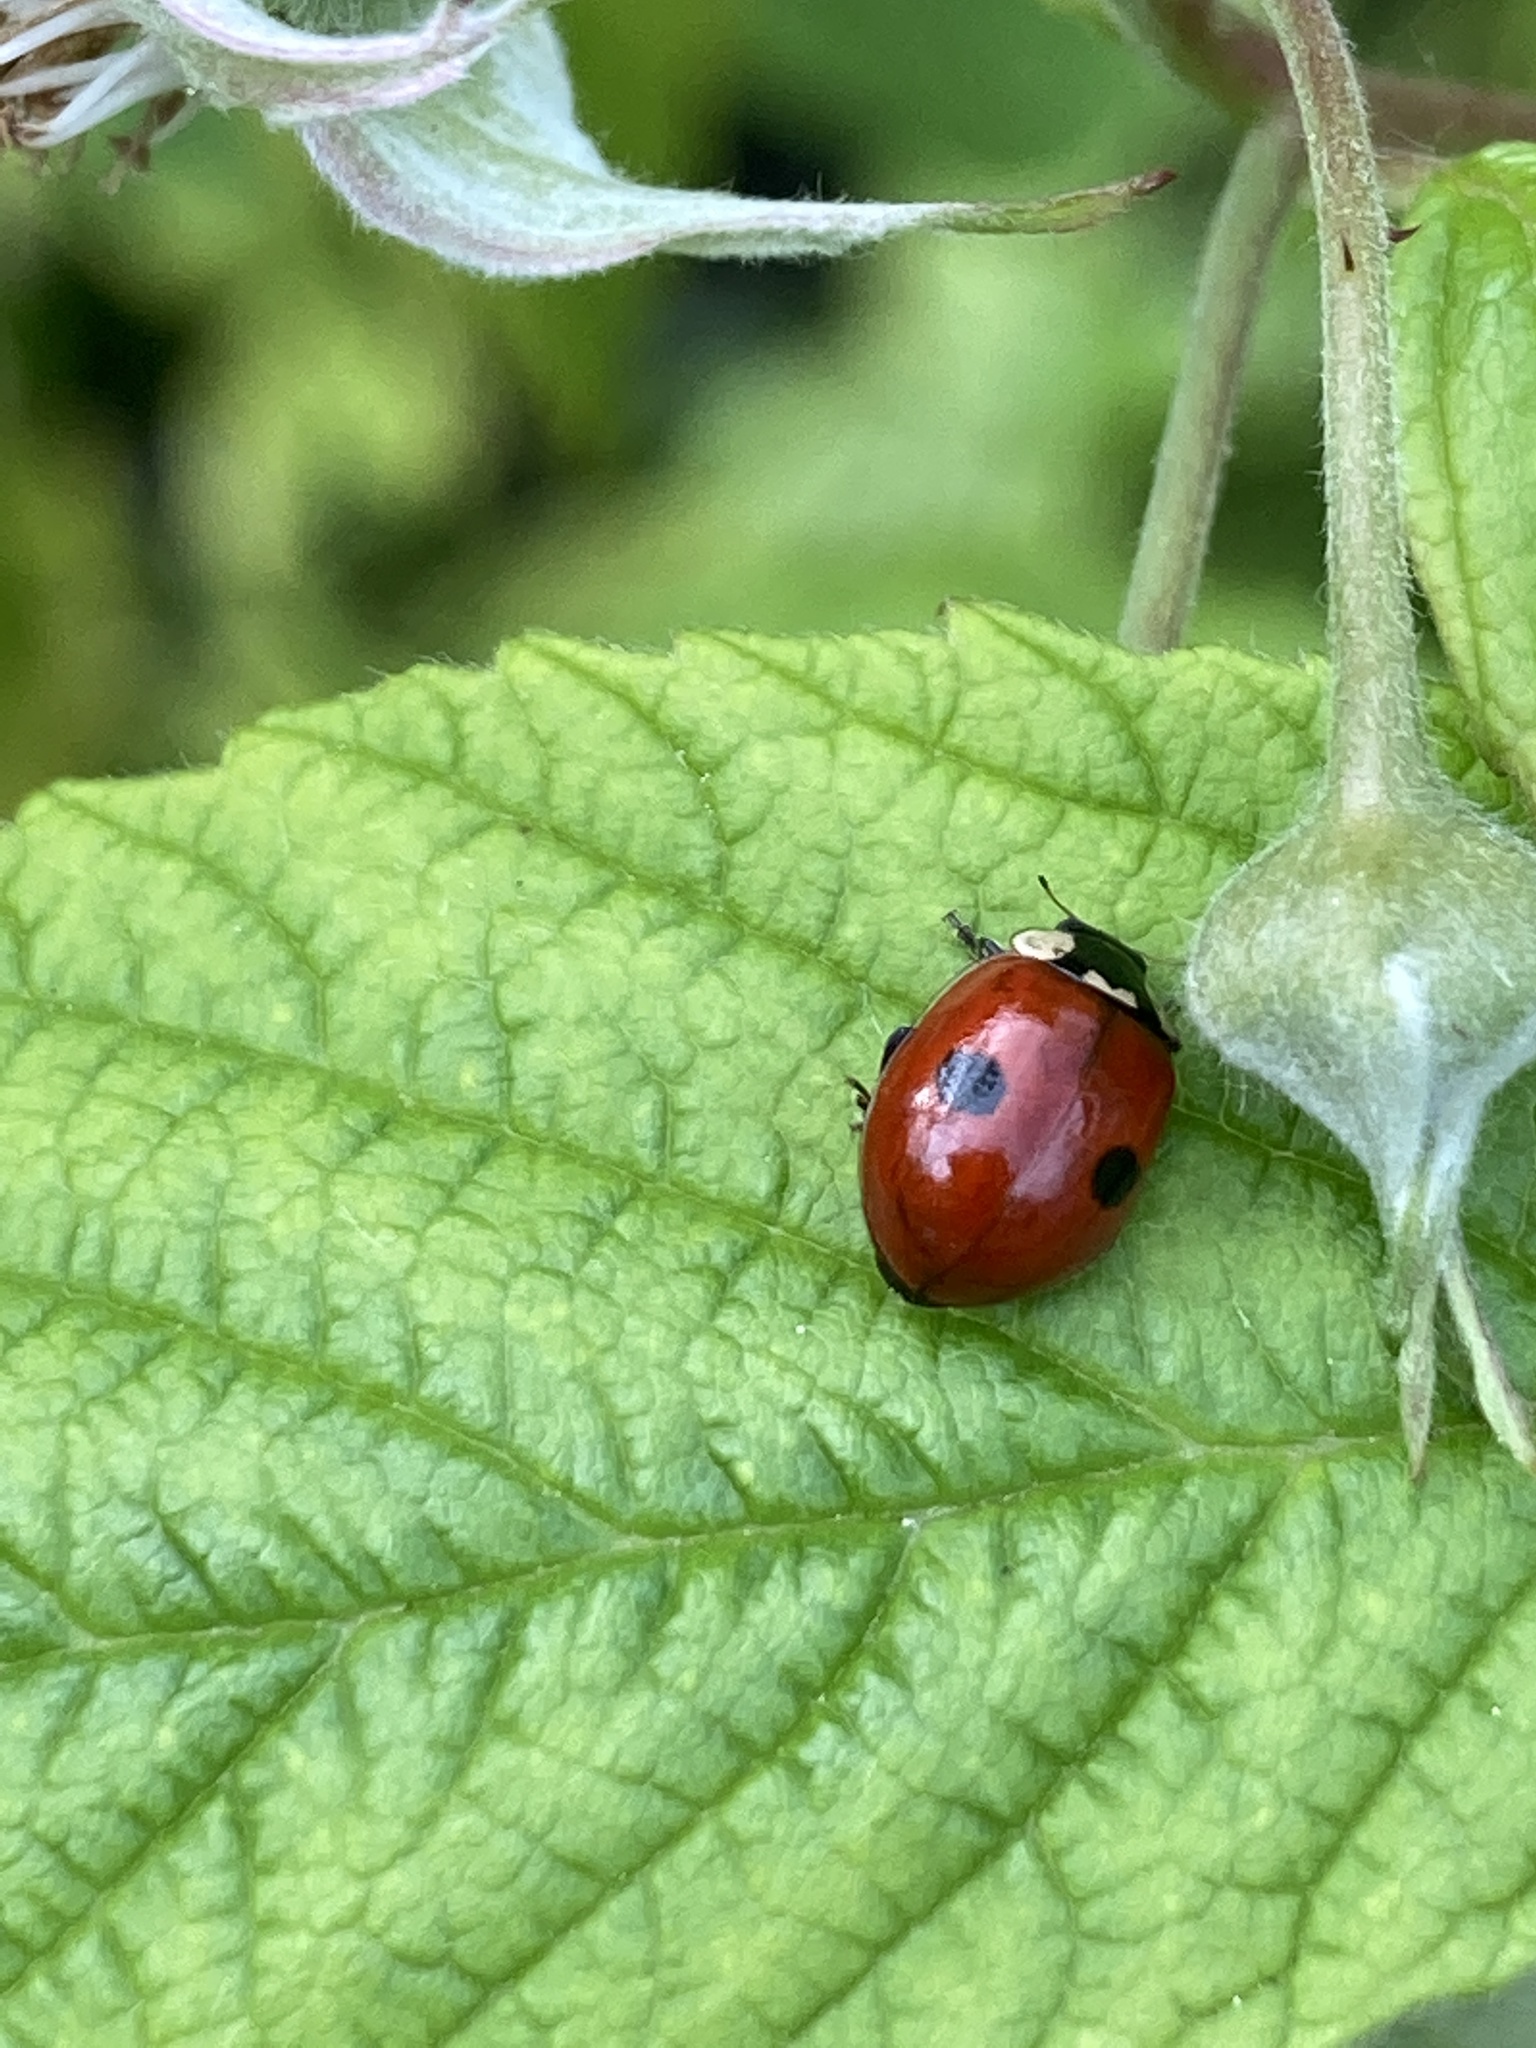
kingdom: Animalia
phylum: Arthropoda
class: Insecta
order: Coleoptera
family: Coccinellidae
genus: Adalia
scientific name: Adalia bipunctata
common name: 2-spot ladybird
